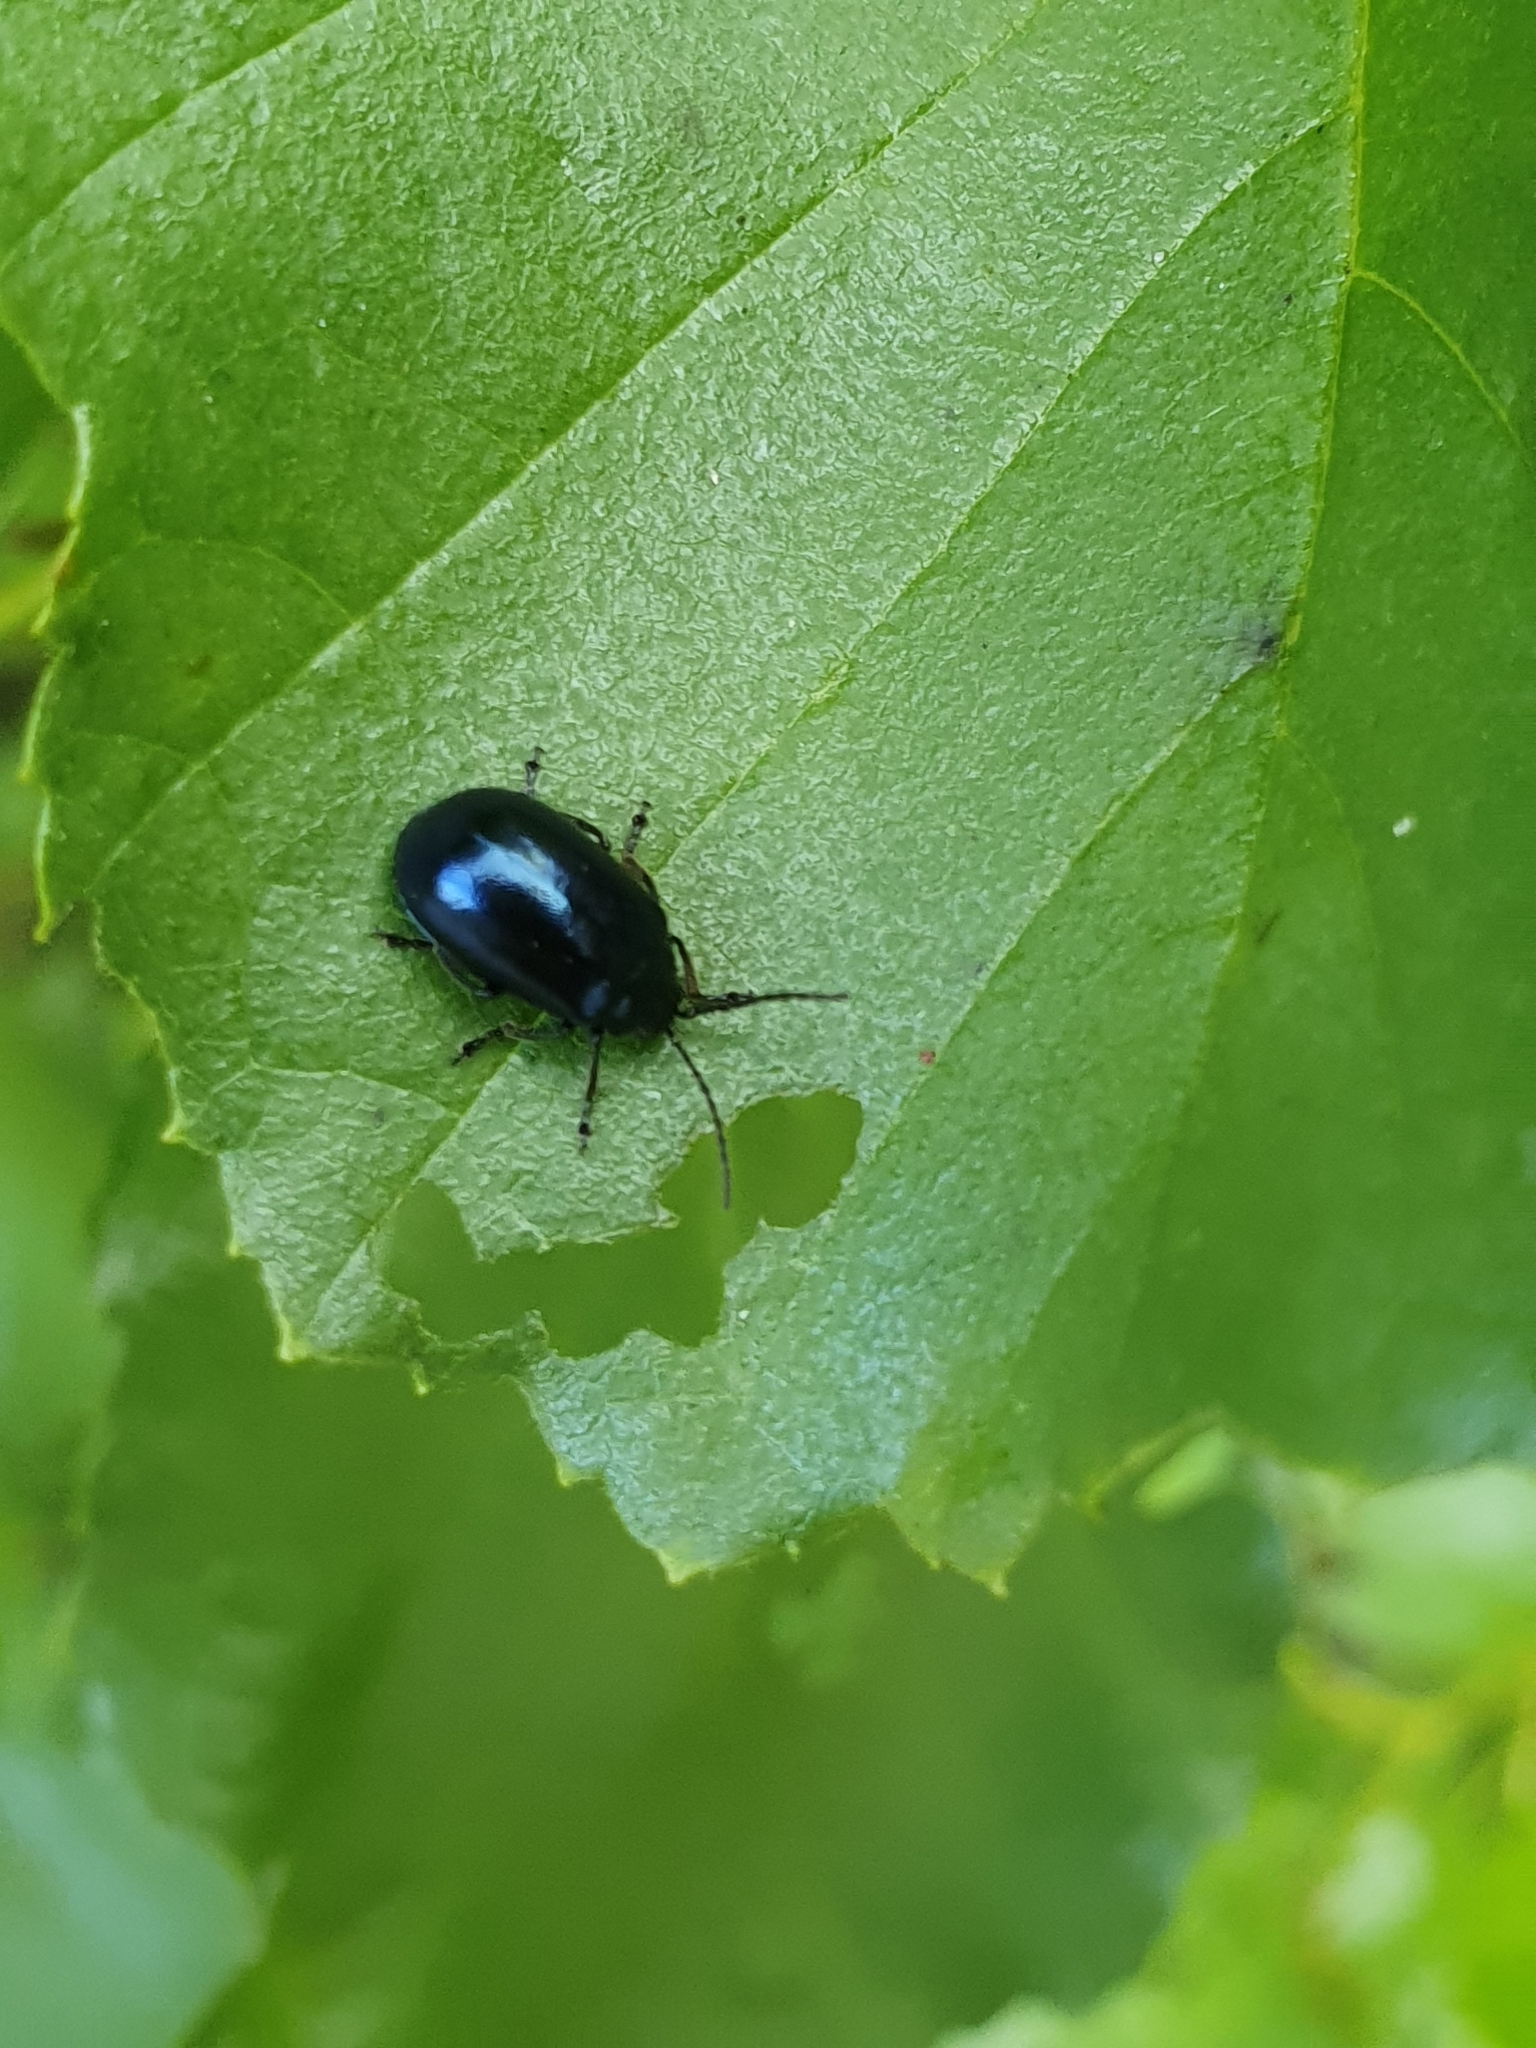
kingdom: Animalia
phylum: Arthropoda
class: Insecta
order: Coleoptera
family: Chrysomelidae
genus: Agelastica
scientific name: Agelastica alni
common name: Alder leaf beetle
